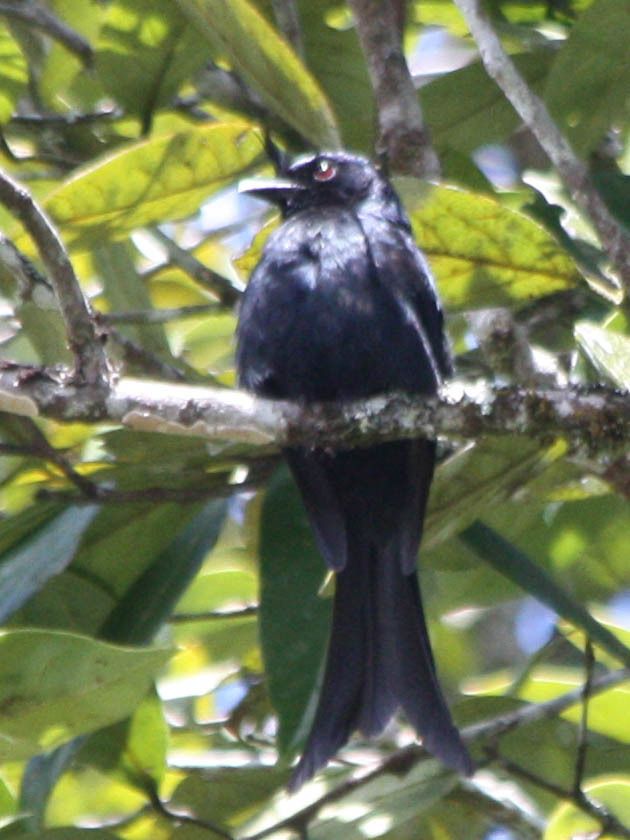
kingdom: Animalia
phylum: Chordata
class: Aves
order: Passeriformes
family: Dicruridae
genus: Dicrurus
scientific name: Dicrurus forficatus
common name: Crested drongo
